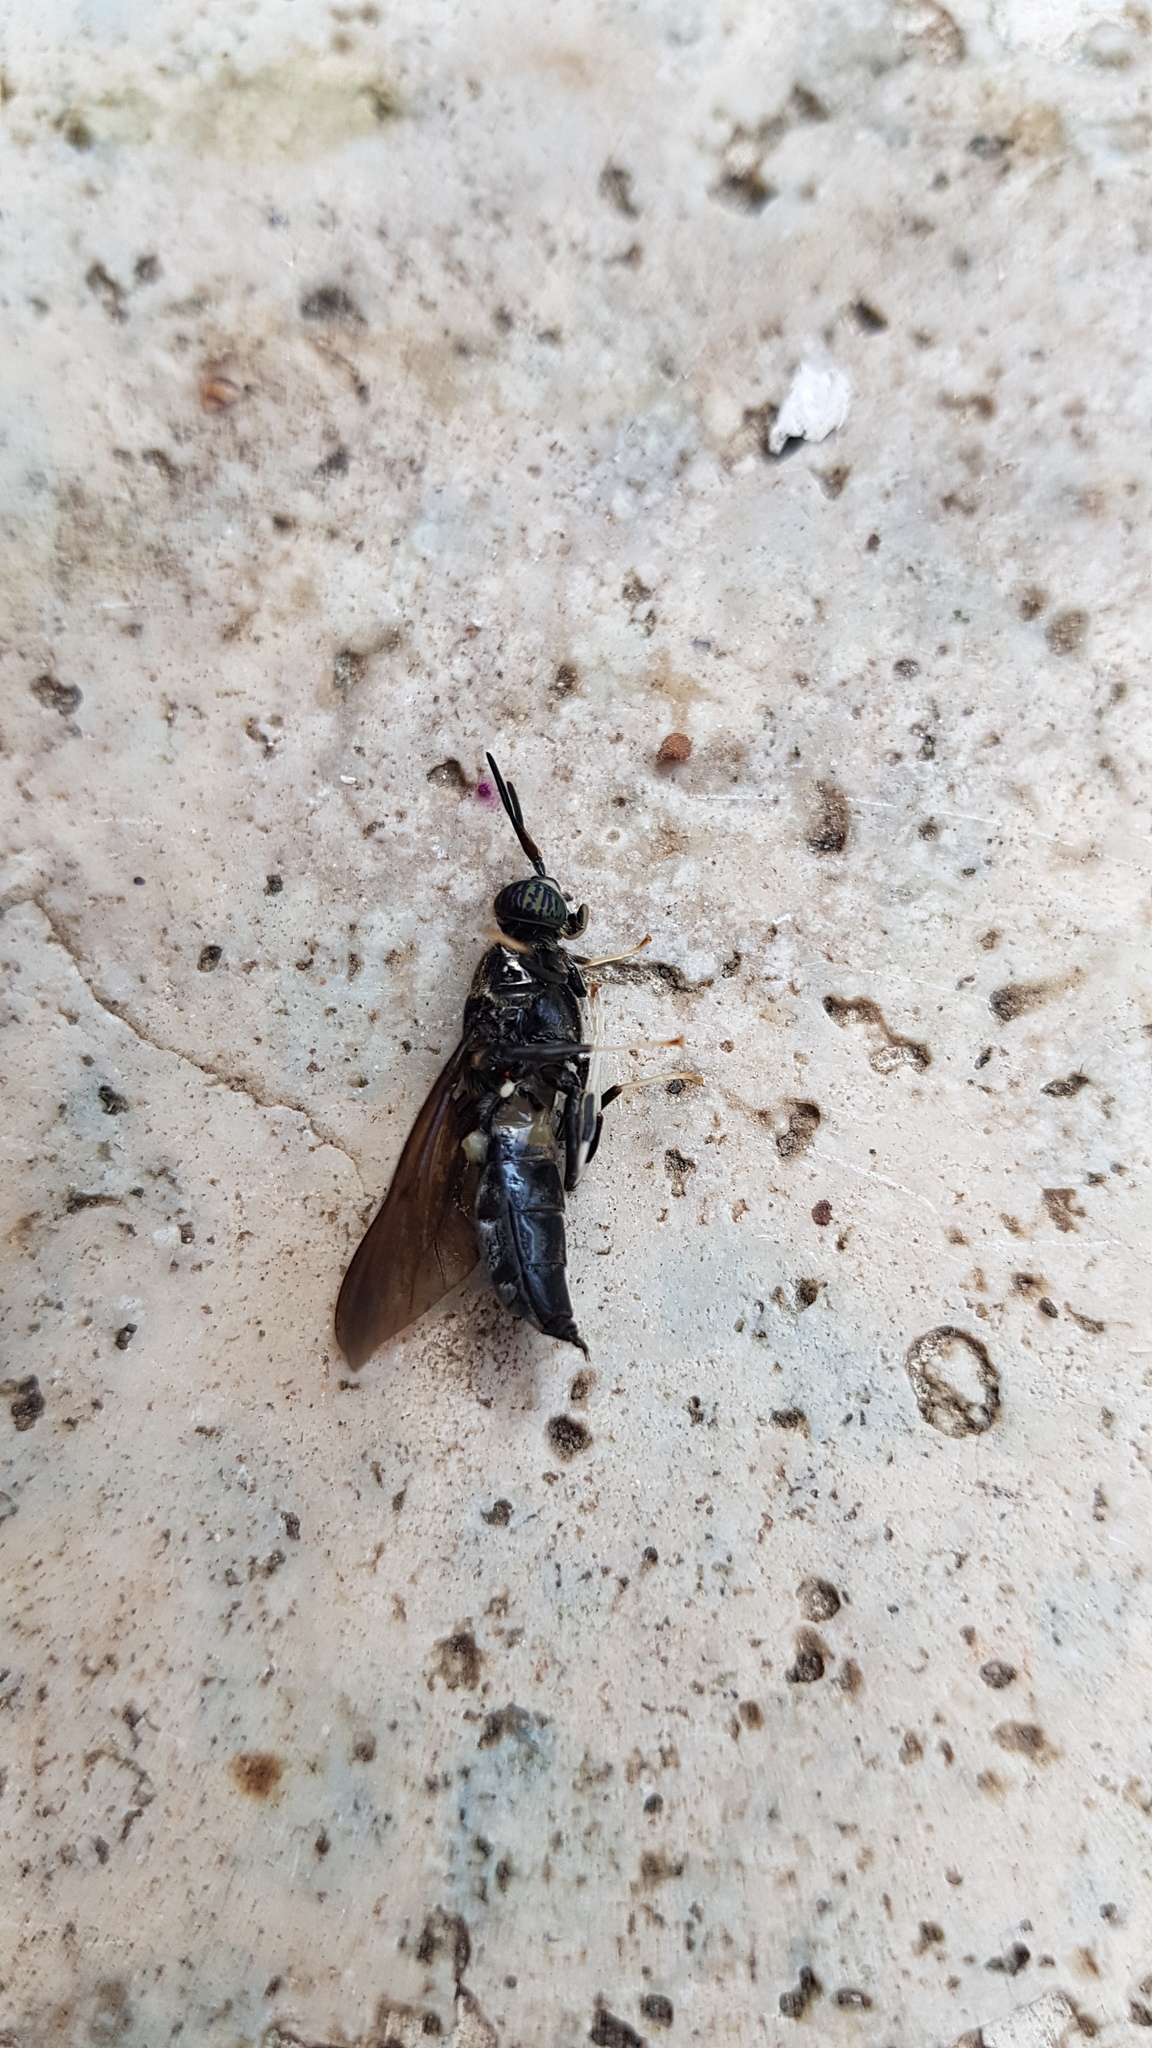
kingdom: Animalia
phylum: Arthropoda
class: Insecta
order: Diptera
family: Stratiomyidae
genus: Hermetia
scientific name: Hermetia illucens
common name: Black soldier fly
